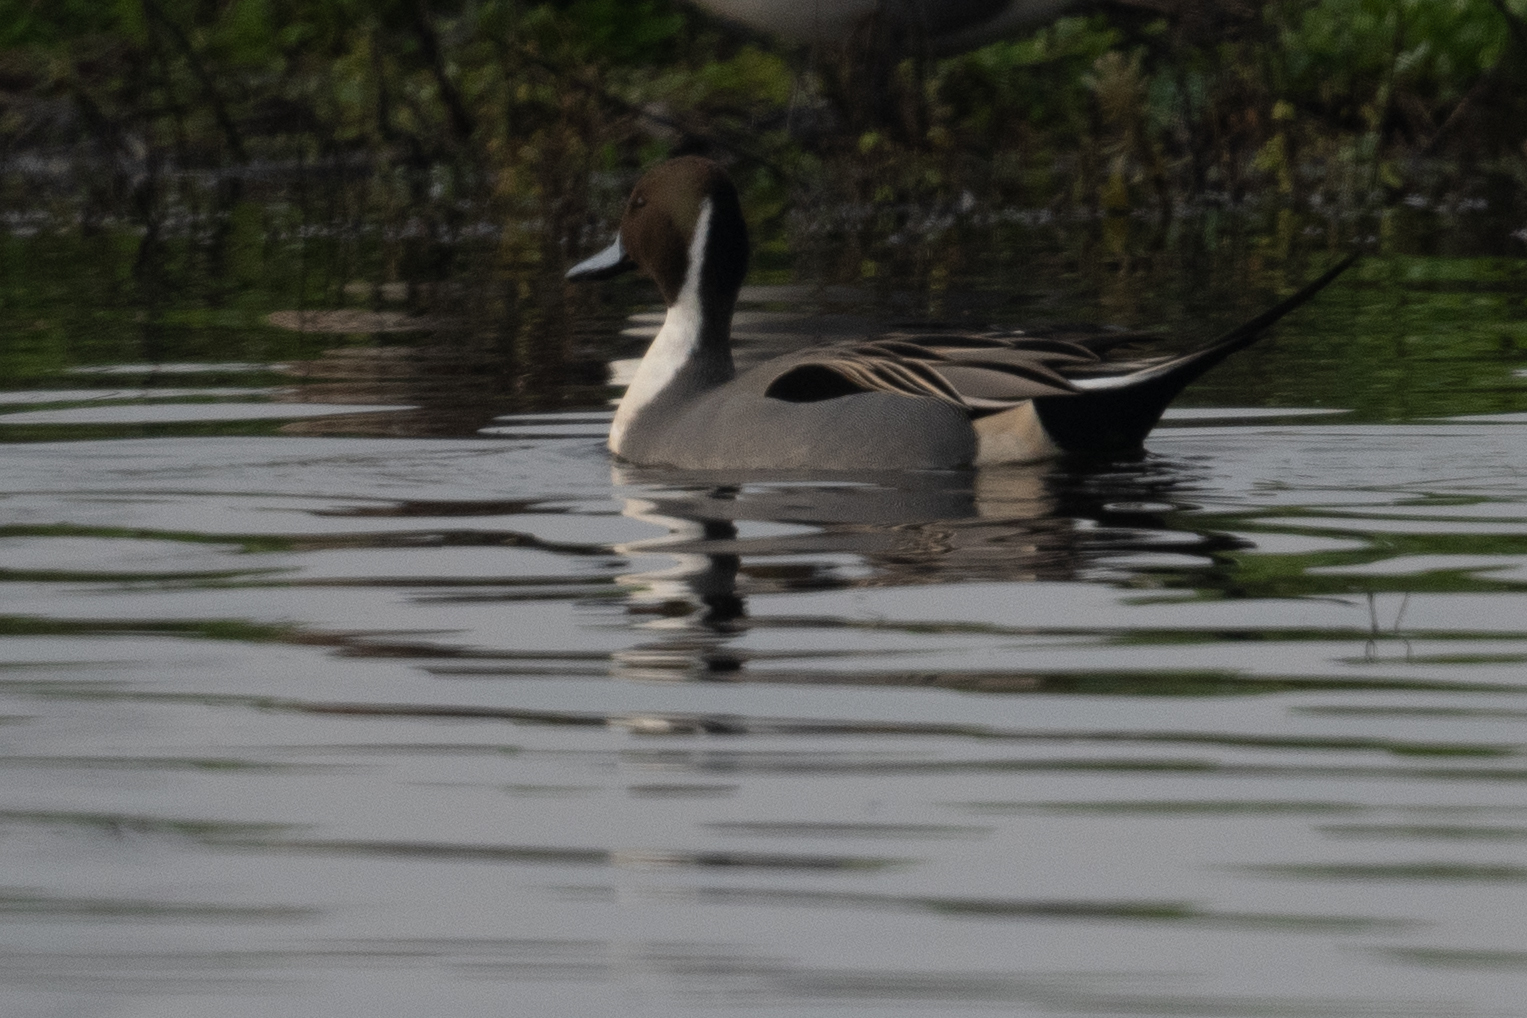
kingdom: Animalia
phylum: Chordata
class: Aves
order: Anseriformes
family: Anatidae
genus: Anas
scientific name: Anas acuta
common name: Northern pintail
